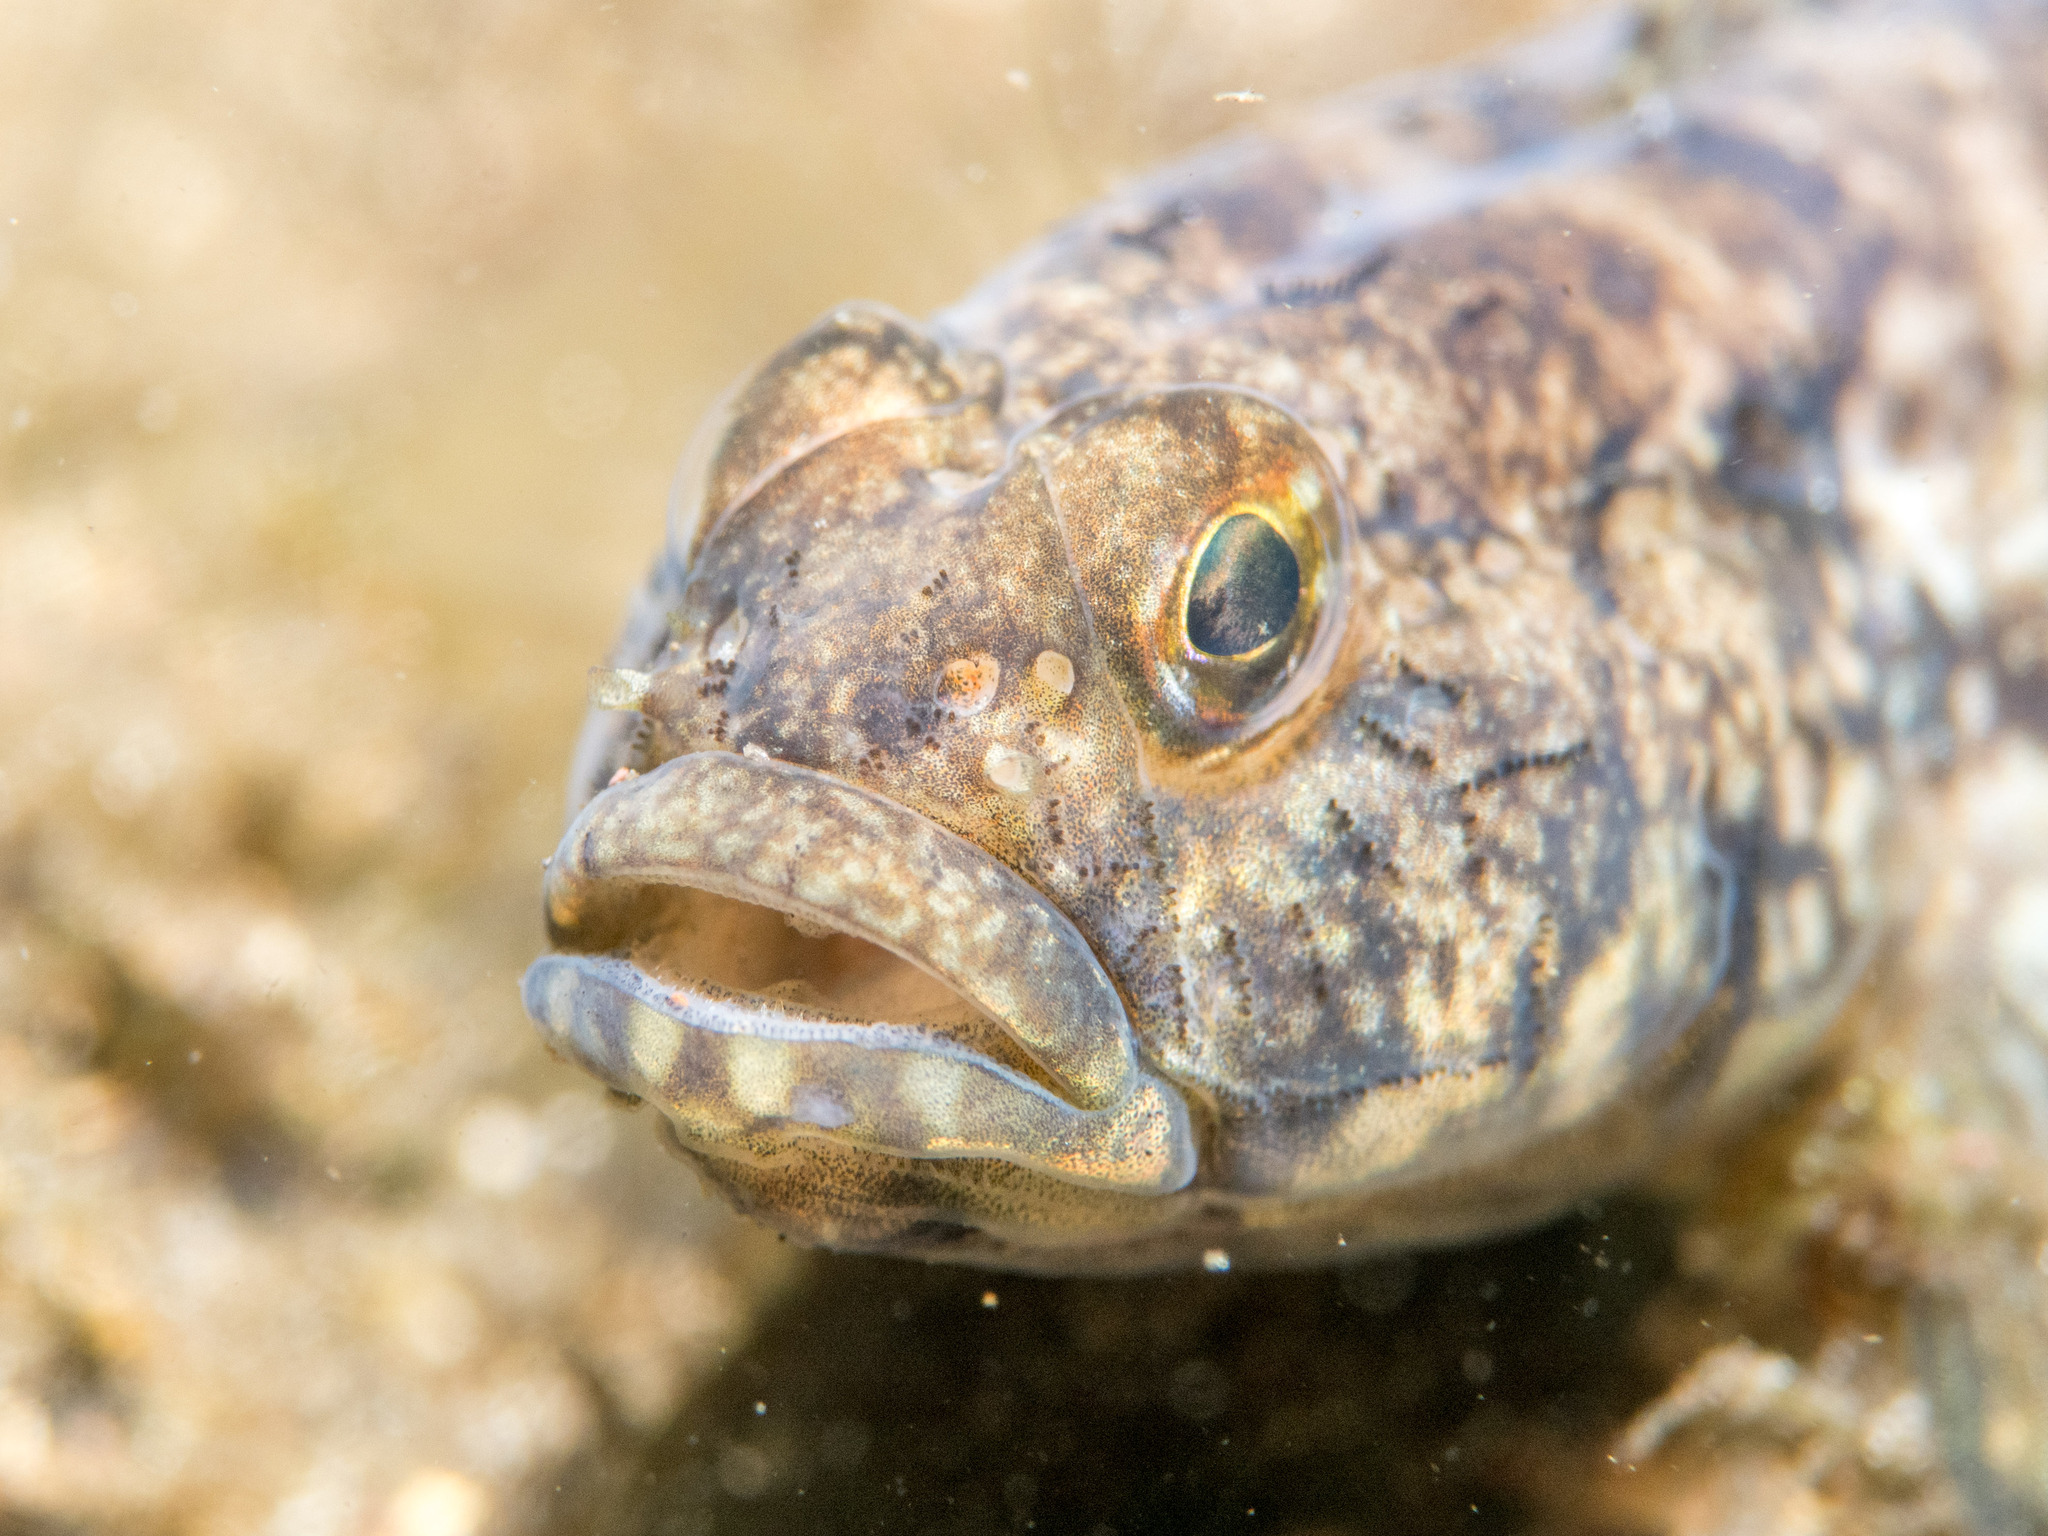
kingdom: Animalia
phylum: Chordata
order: Perciformes
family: Gobiidae
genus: Gobius
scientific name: Gobius niger
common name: Black goby
